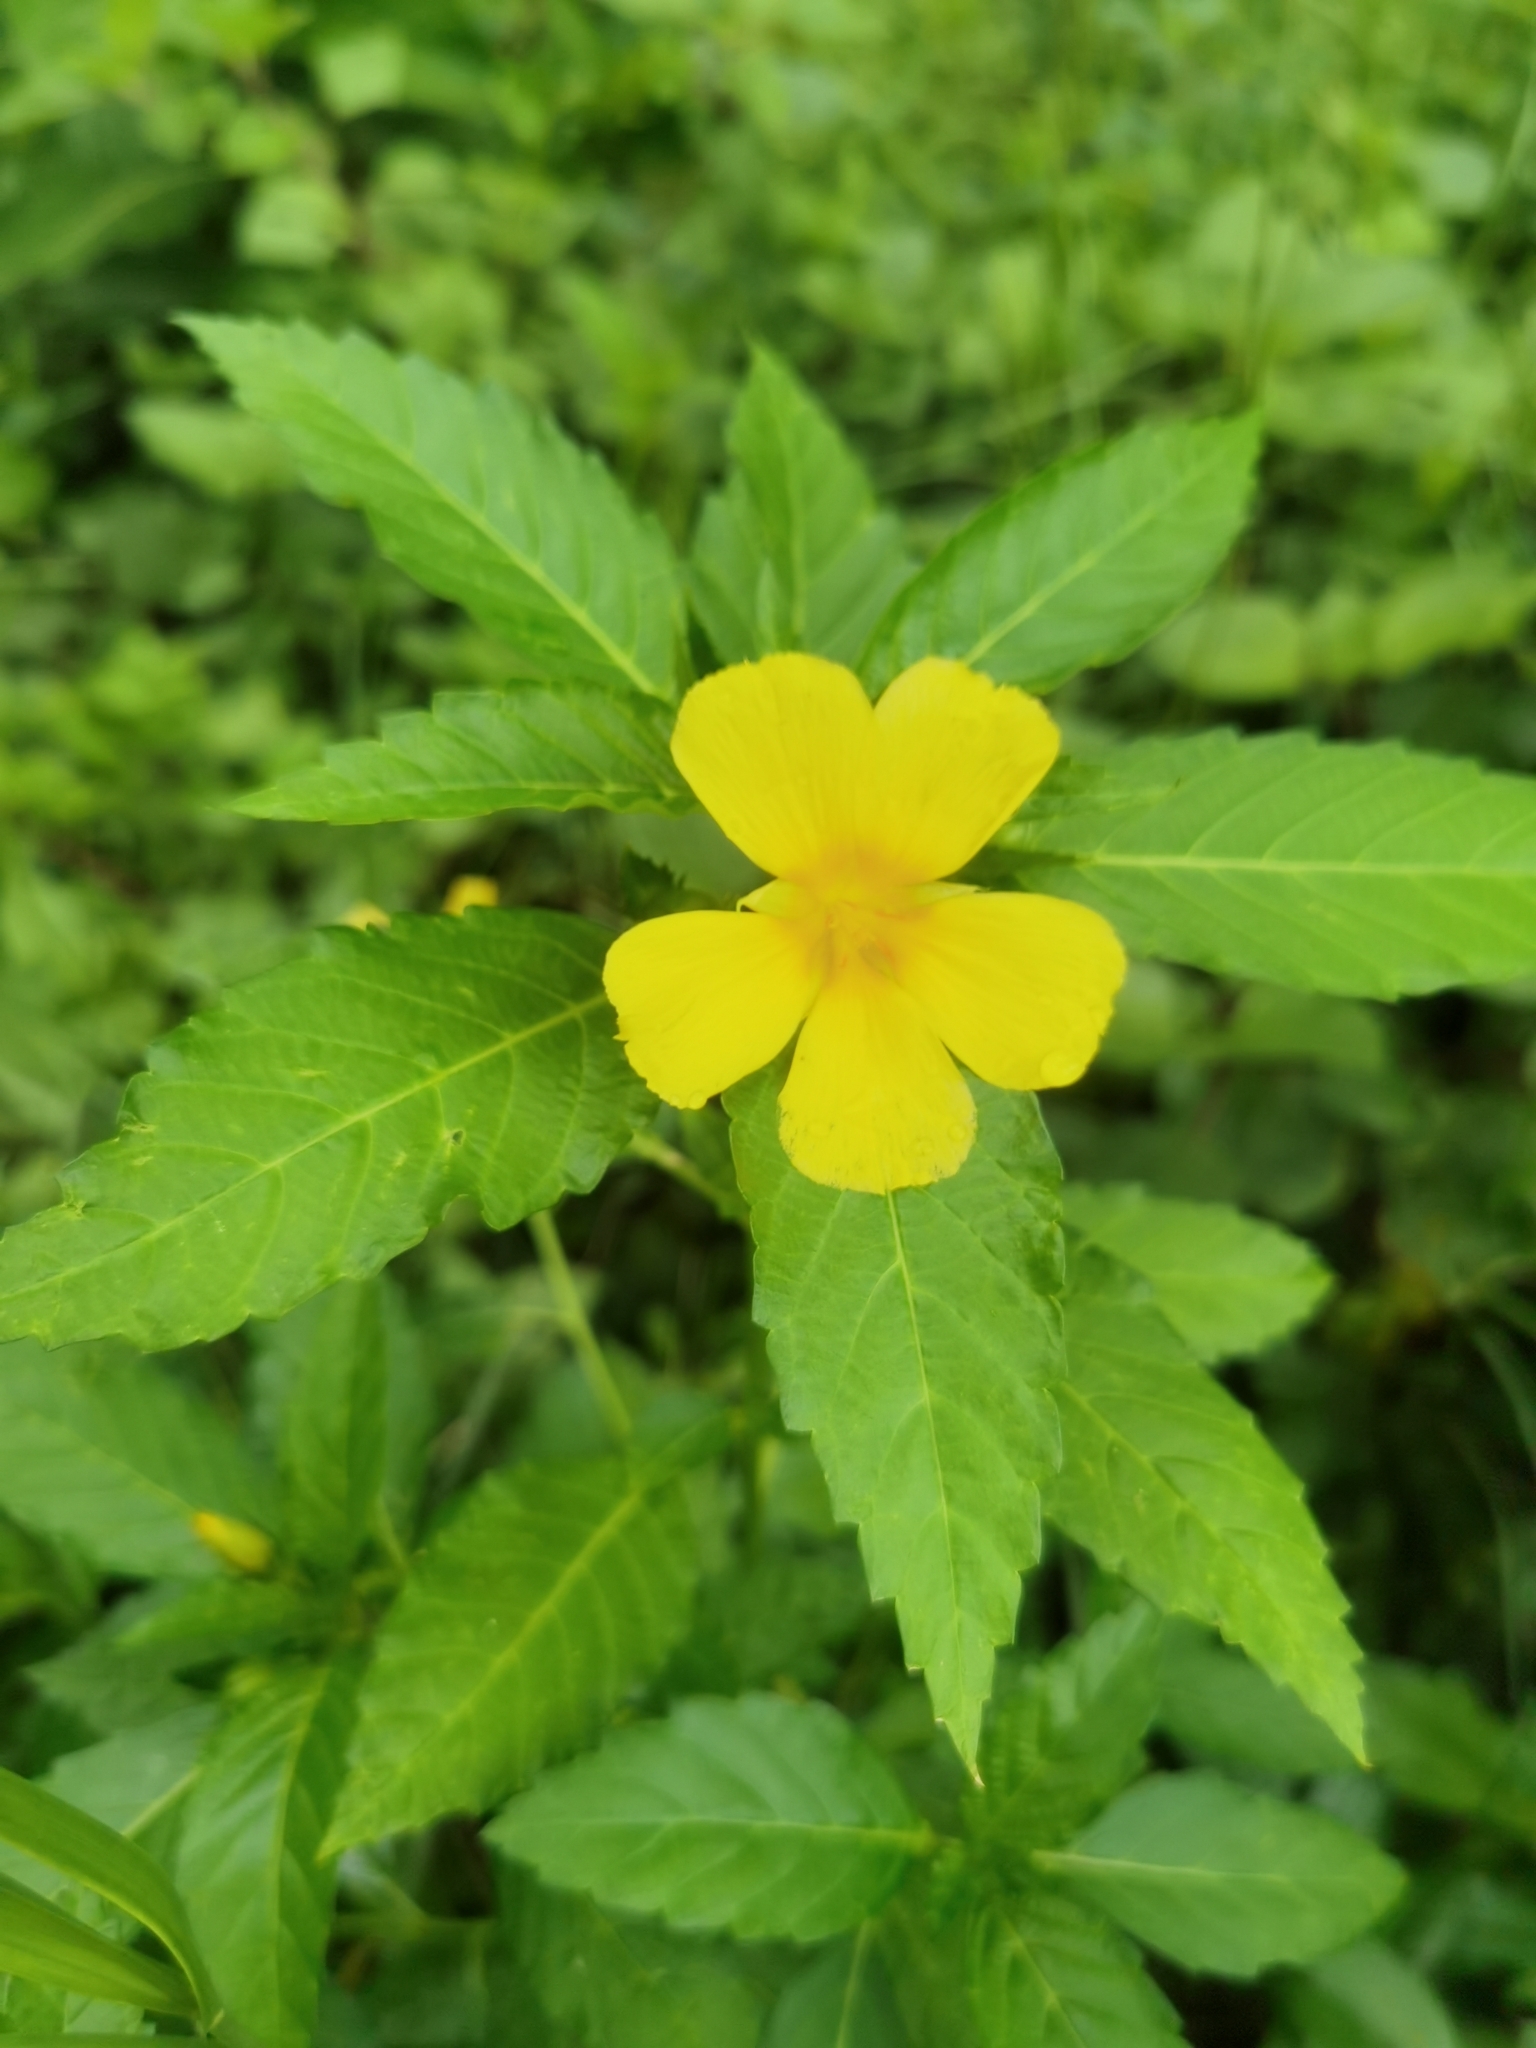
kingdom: Plantae
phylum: Tracheophyta
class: Magnoliopsida
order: Malpighiales
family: Turneraceae
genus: Turnera
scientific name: Turnera ulmifolia
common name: Ramgoat dashalong
